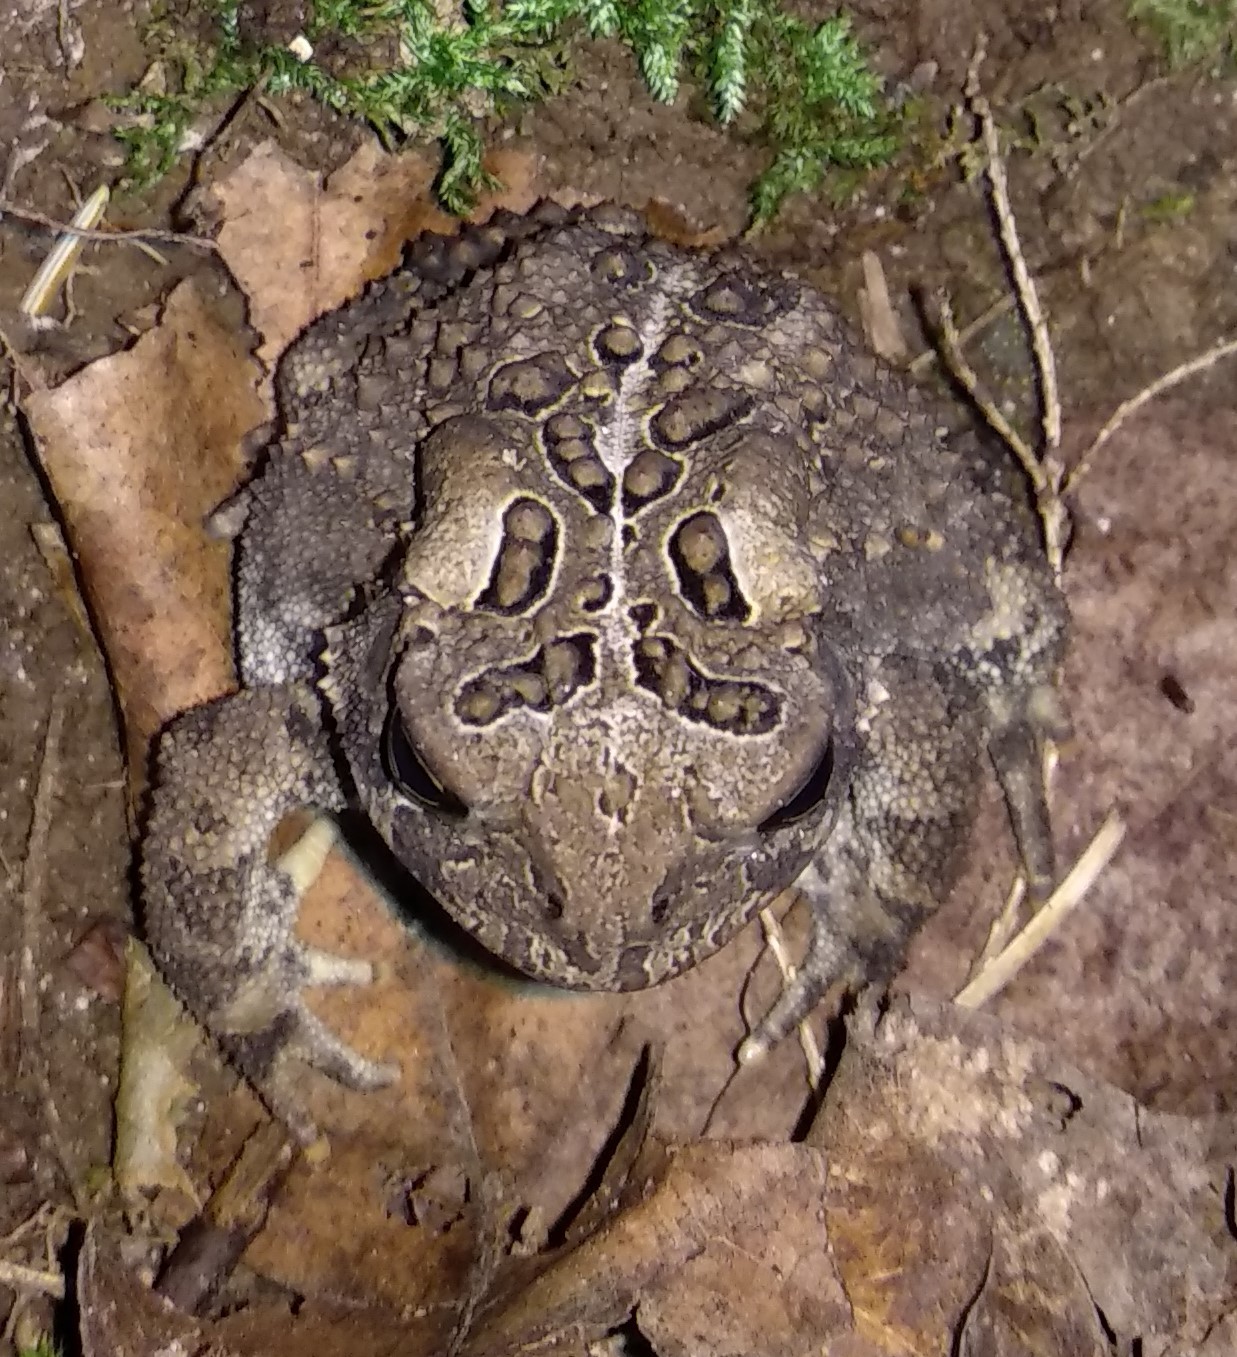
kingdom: Animalia
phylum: Chordata
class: Amphibia
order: Anura
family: Bufonidae
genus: Anaxyrus
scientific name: Anaxyrus americanus
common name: American toad
